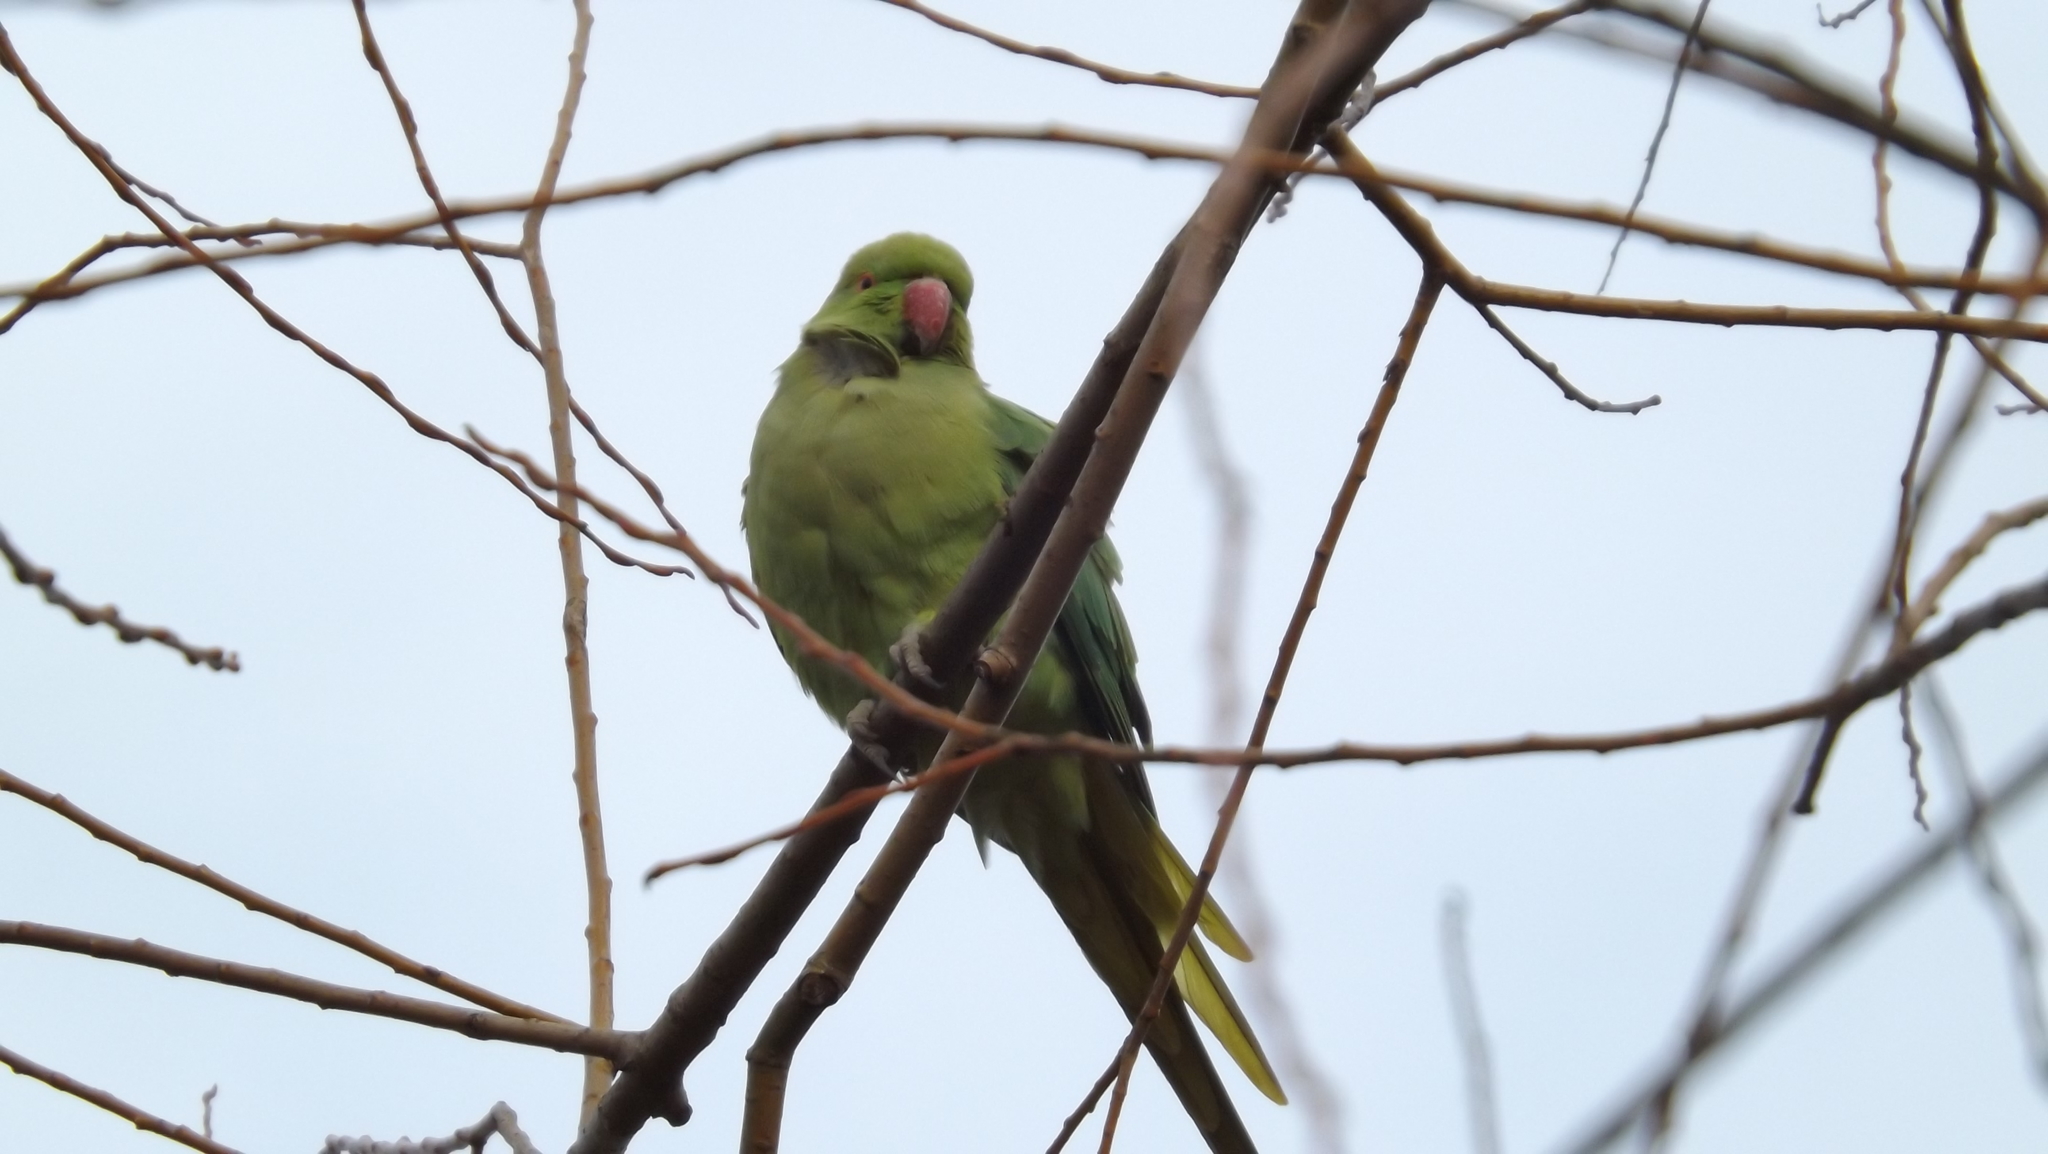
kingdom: Animalia
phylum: Chordata
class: Aves
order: Psittaciformes
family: Psittacidae
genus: Psittacula
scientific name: Psittacula krameri
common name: Rose-ringed parakeet
